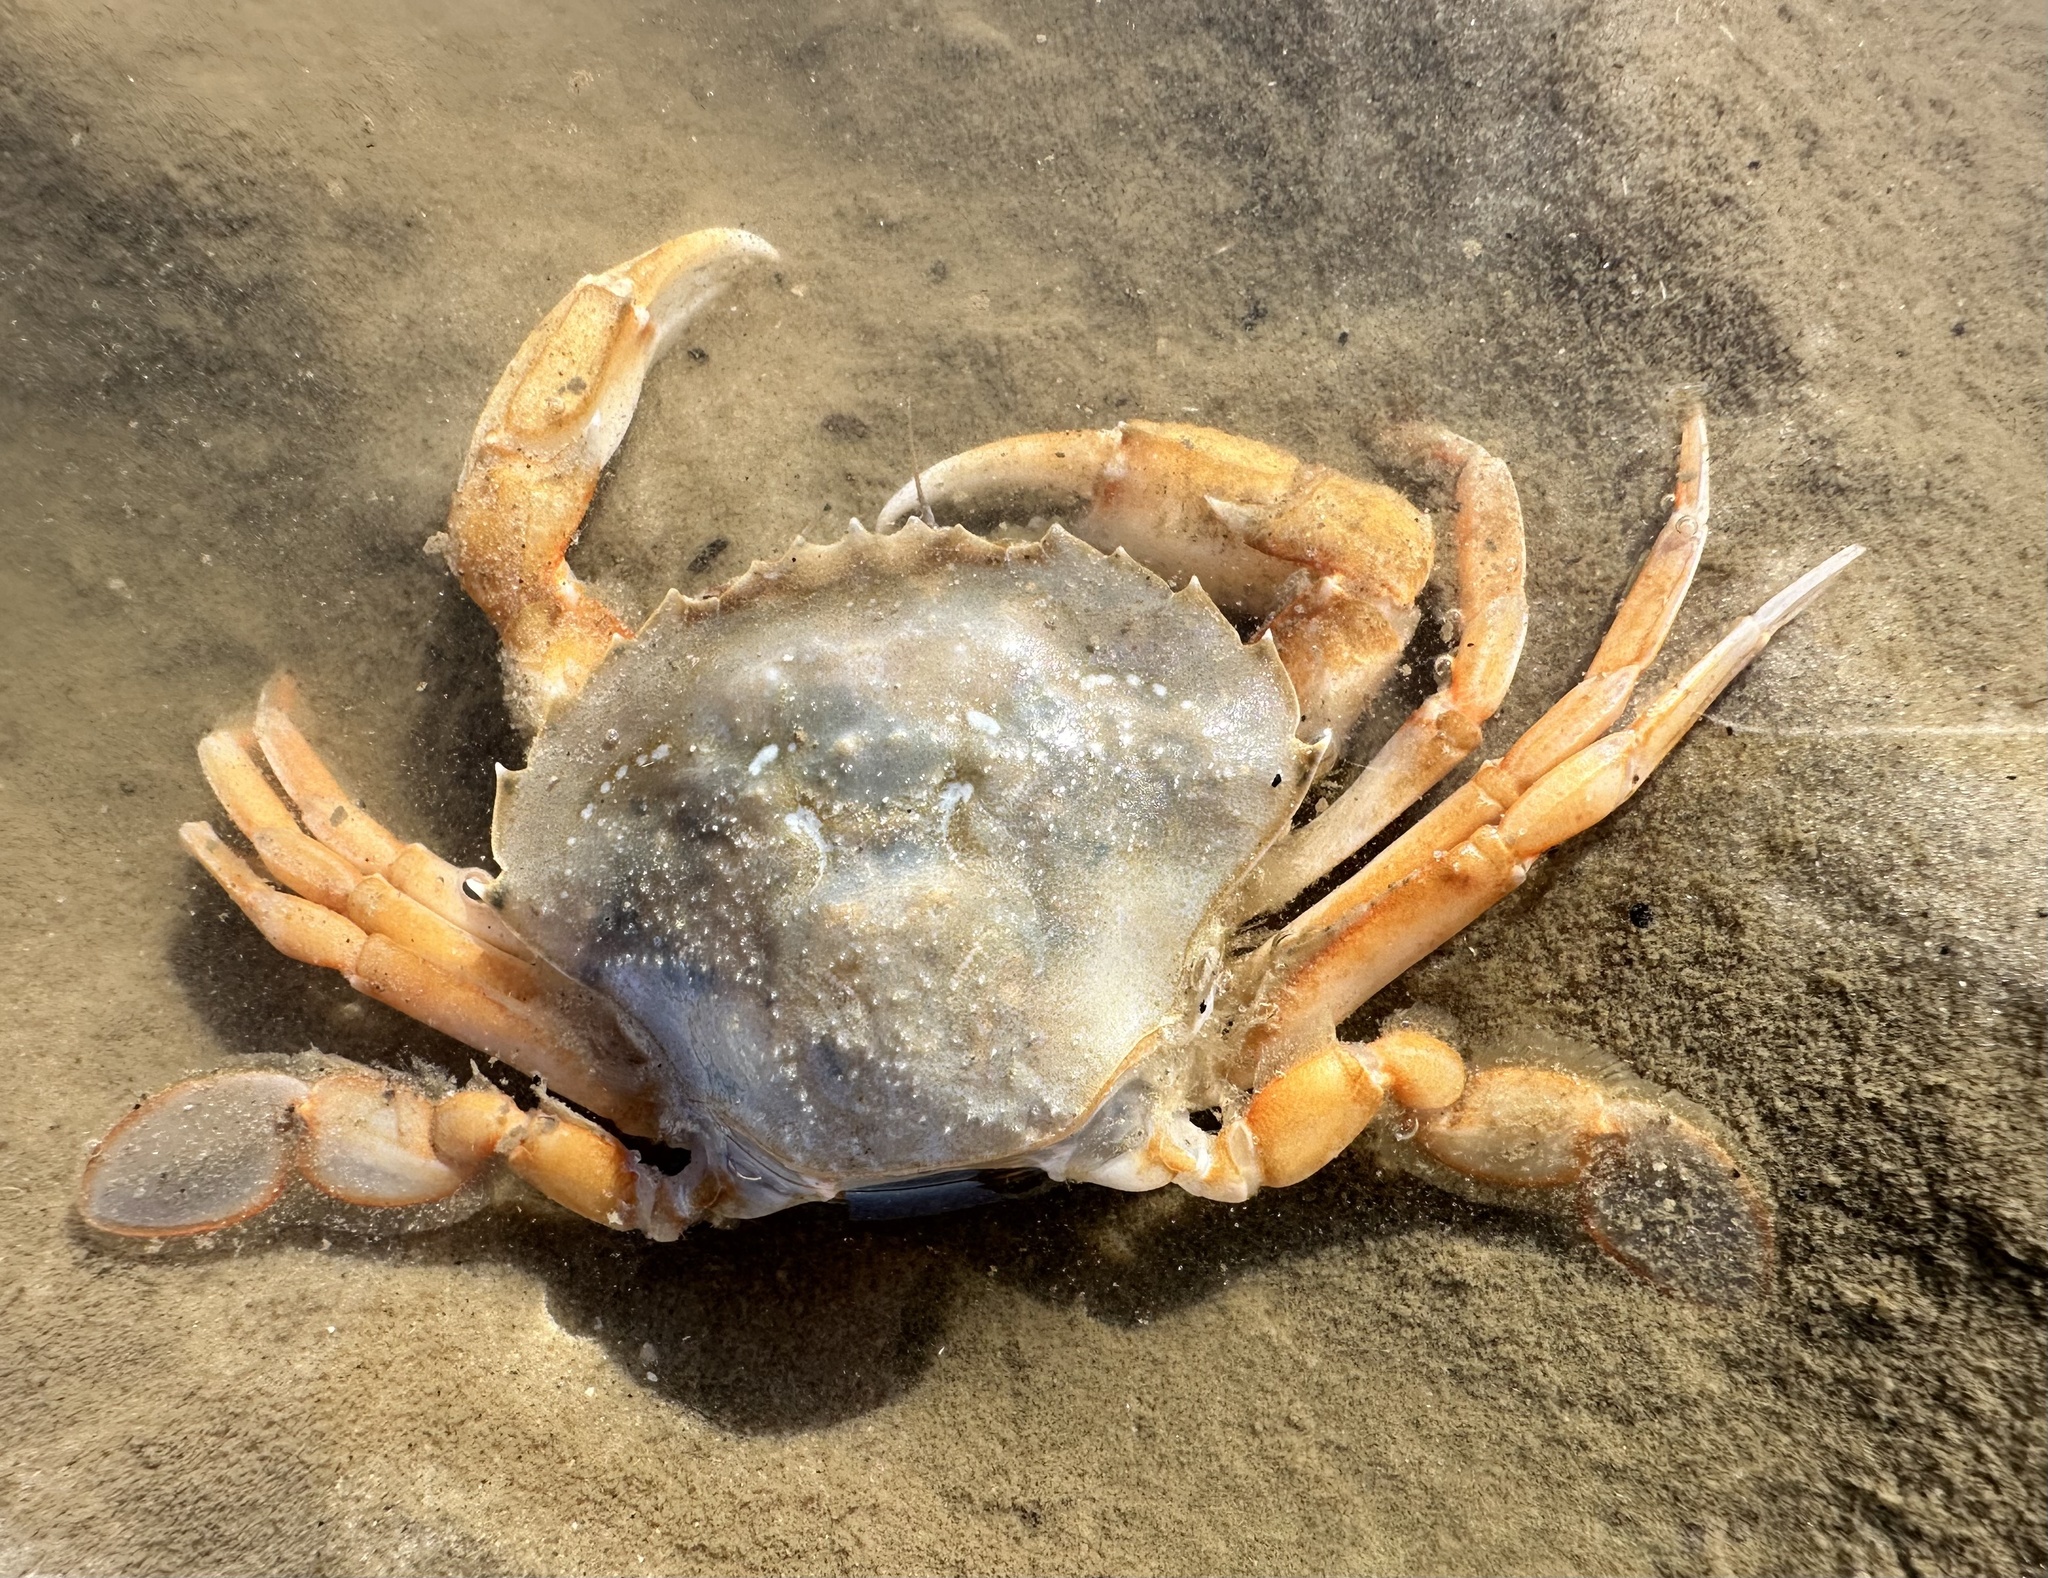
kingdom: Animalia
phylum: Arthropoda
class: Malacostraca
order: Decapoda
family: Polybiidae
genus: Liocarcinus
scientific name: Liocarcinus holsatus
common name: Flying crab
